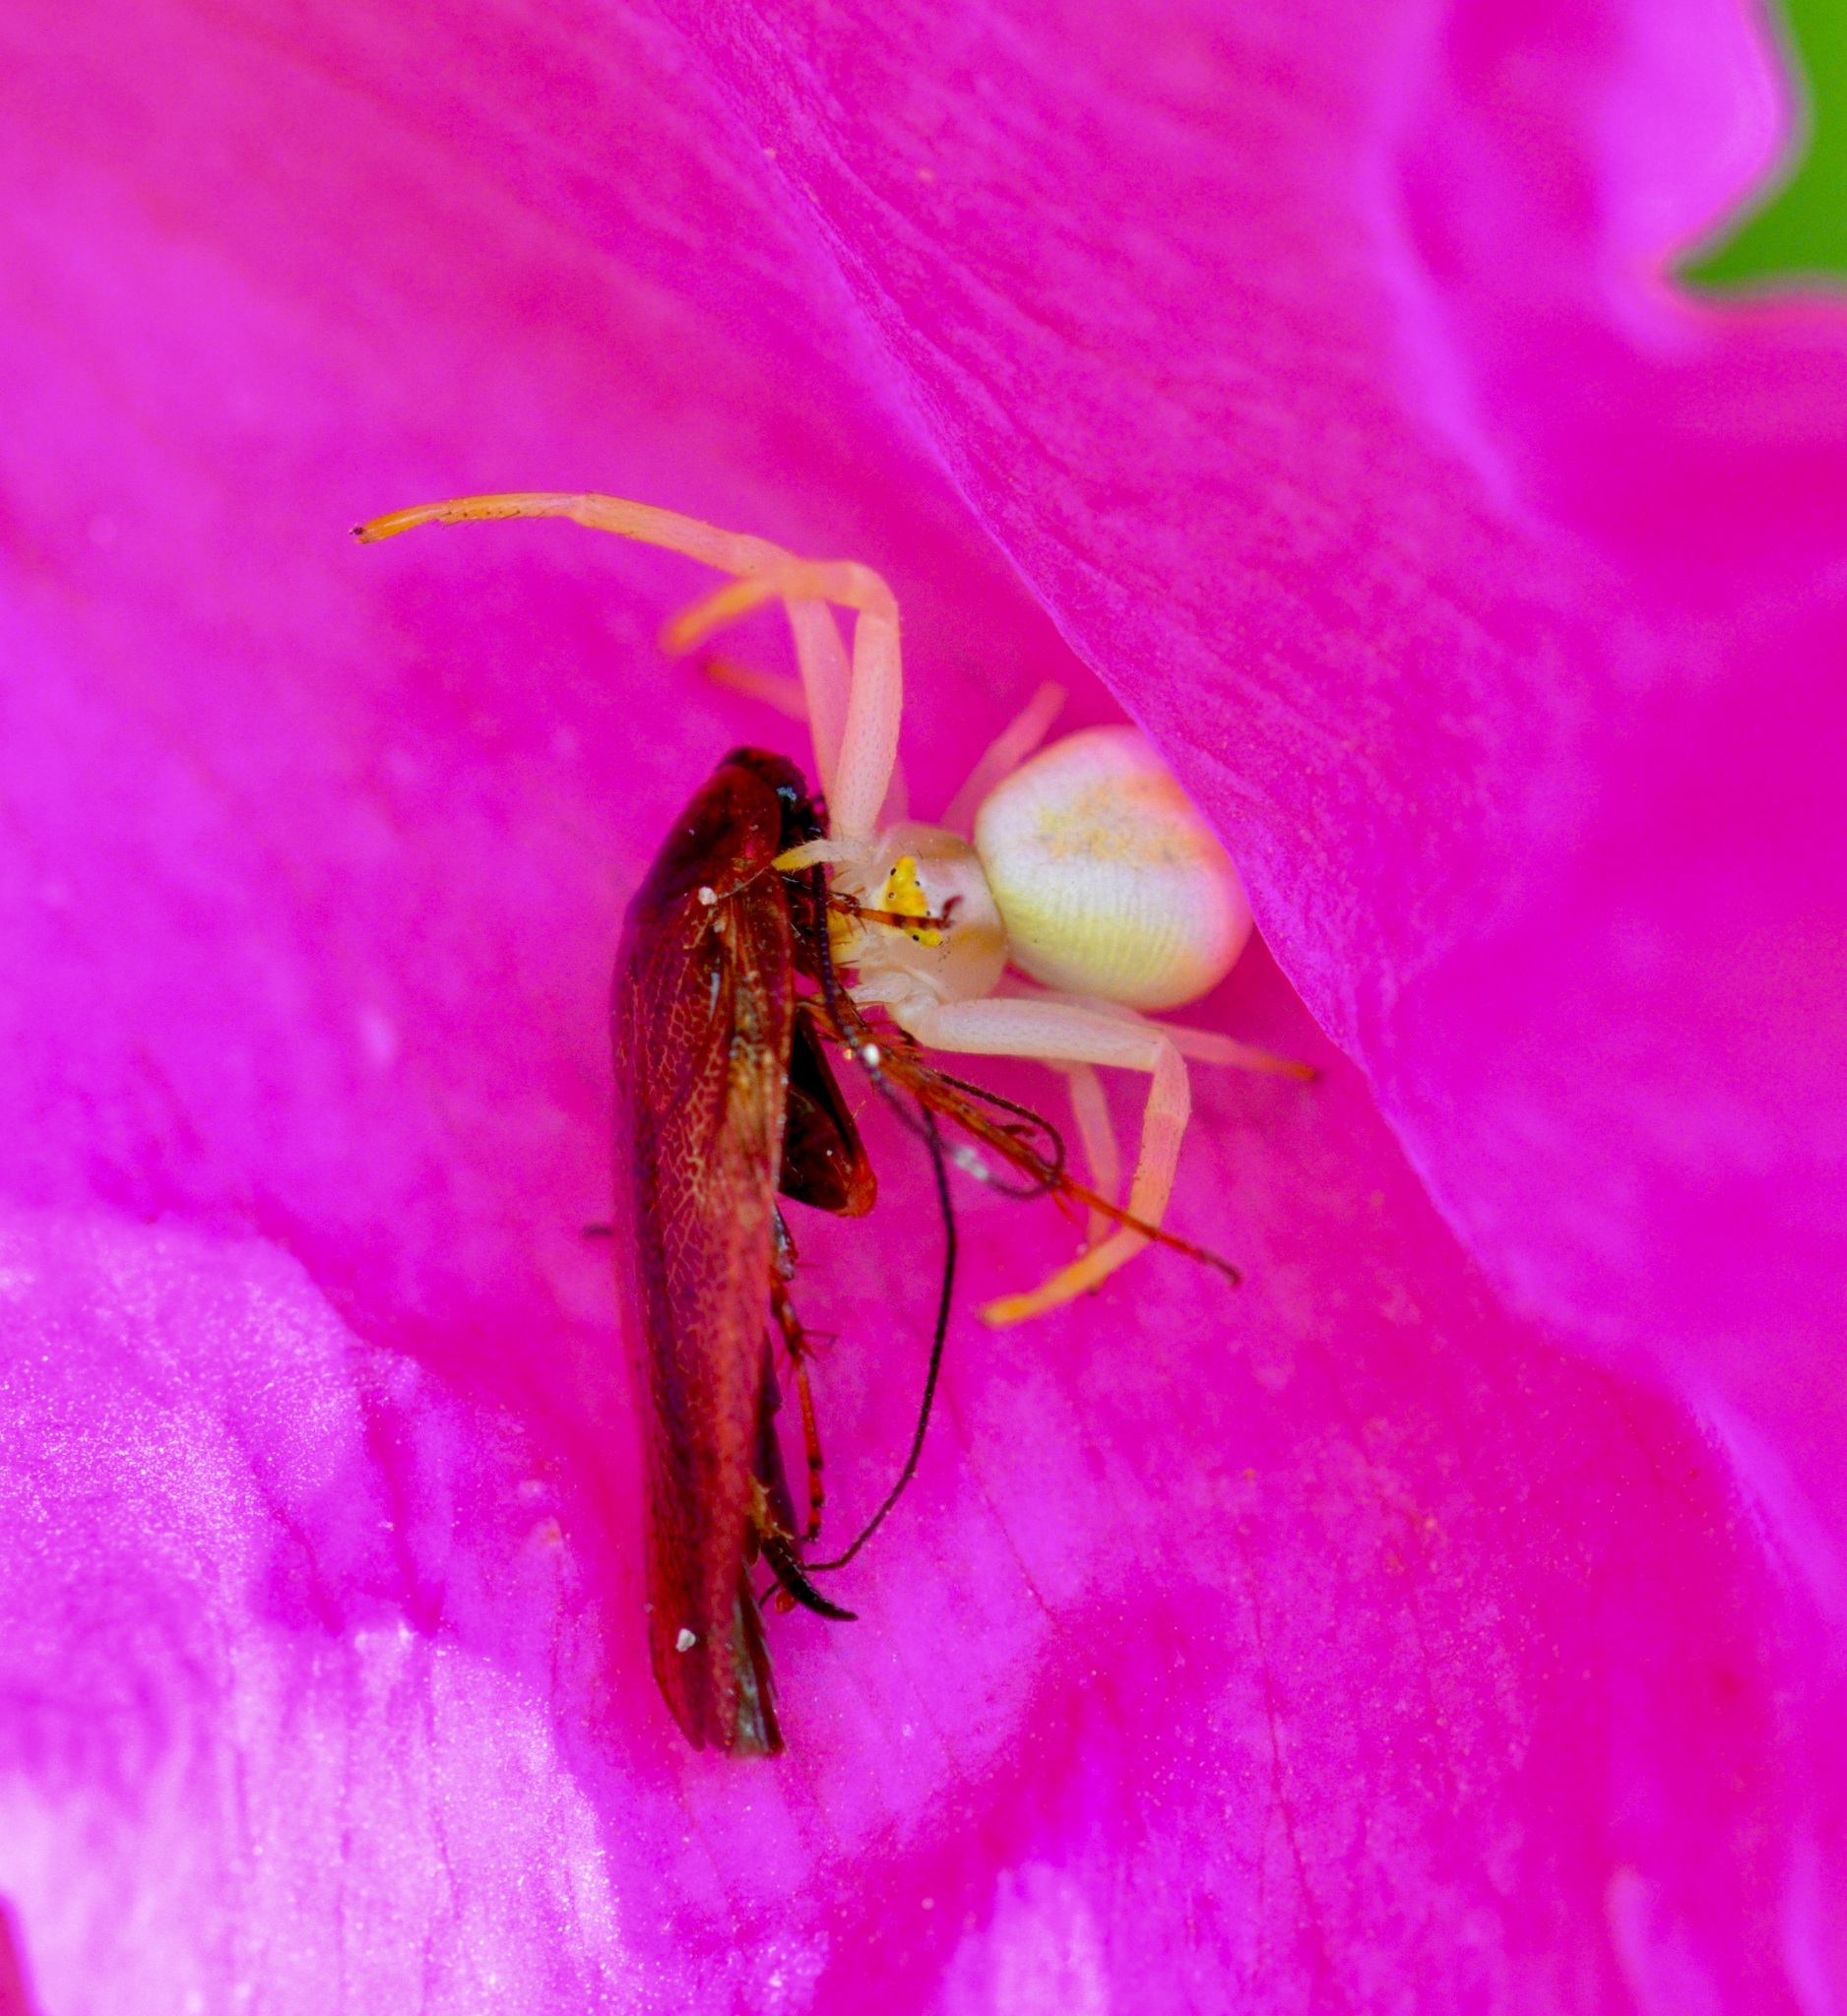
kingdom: Animalia
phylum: Arthropoda
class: Arachnida
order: Araneae
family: Thomisidae
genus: Misumena
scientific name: Misumena vatia
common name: Goldenrod crab spider
